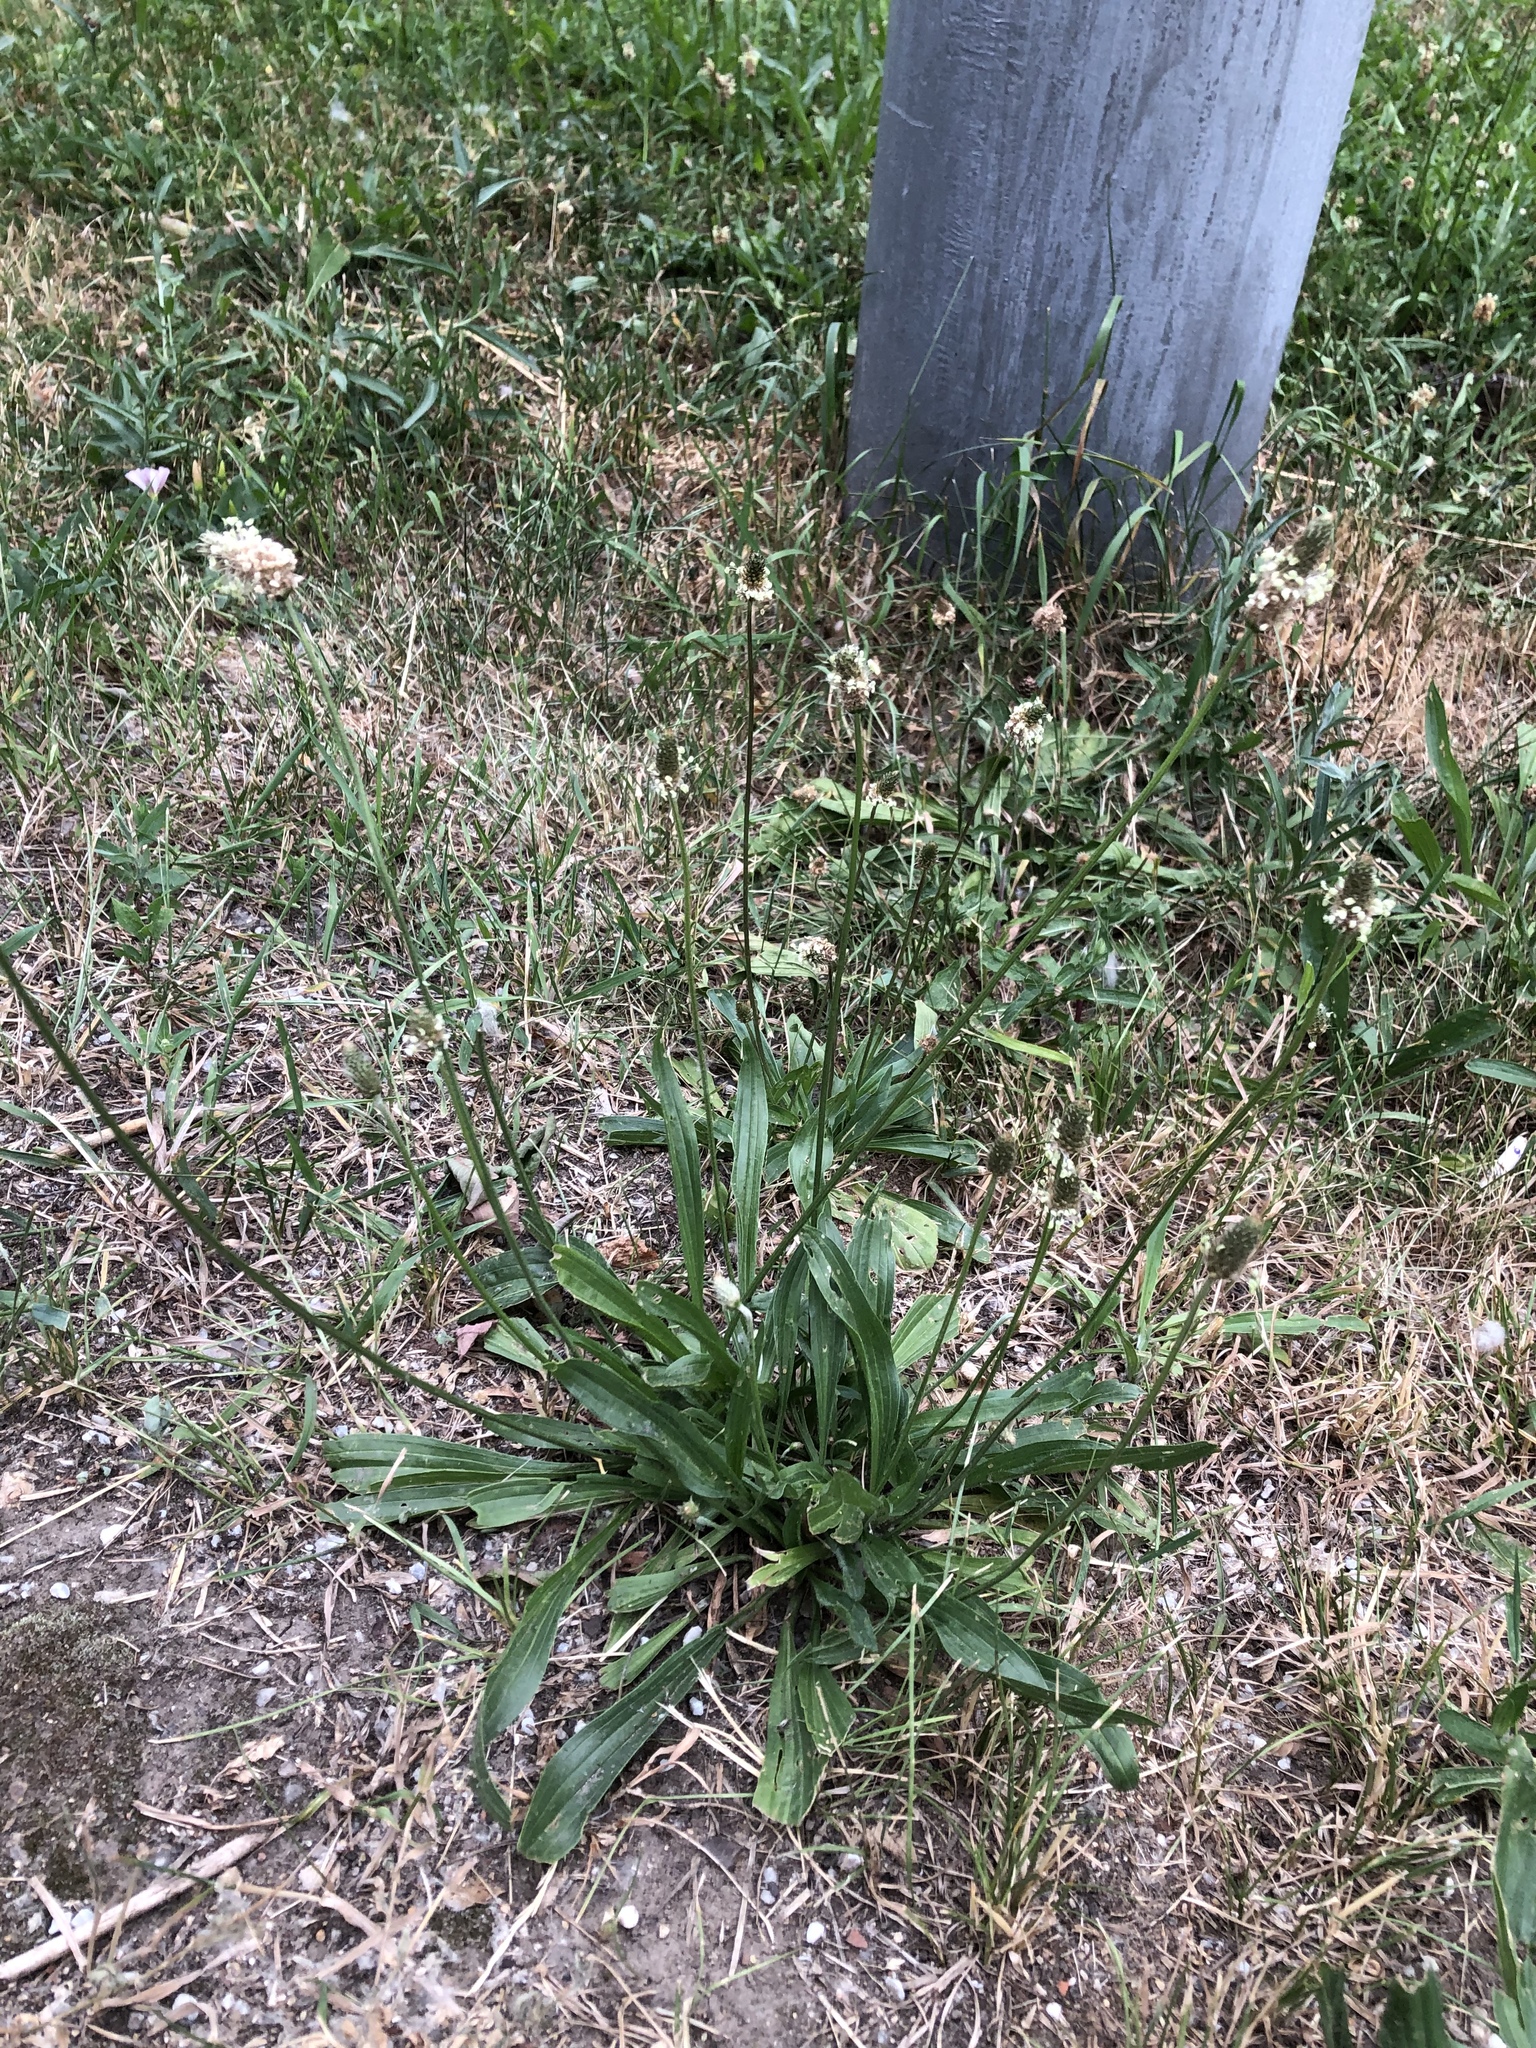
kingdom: Plantae
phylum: Tracheophyta
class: Magnoliopsida
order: Lamiales
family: Plantaginaceae
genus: Plantago
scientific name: Plantago lanceolata
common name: Ribwort plantain
